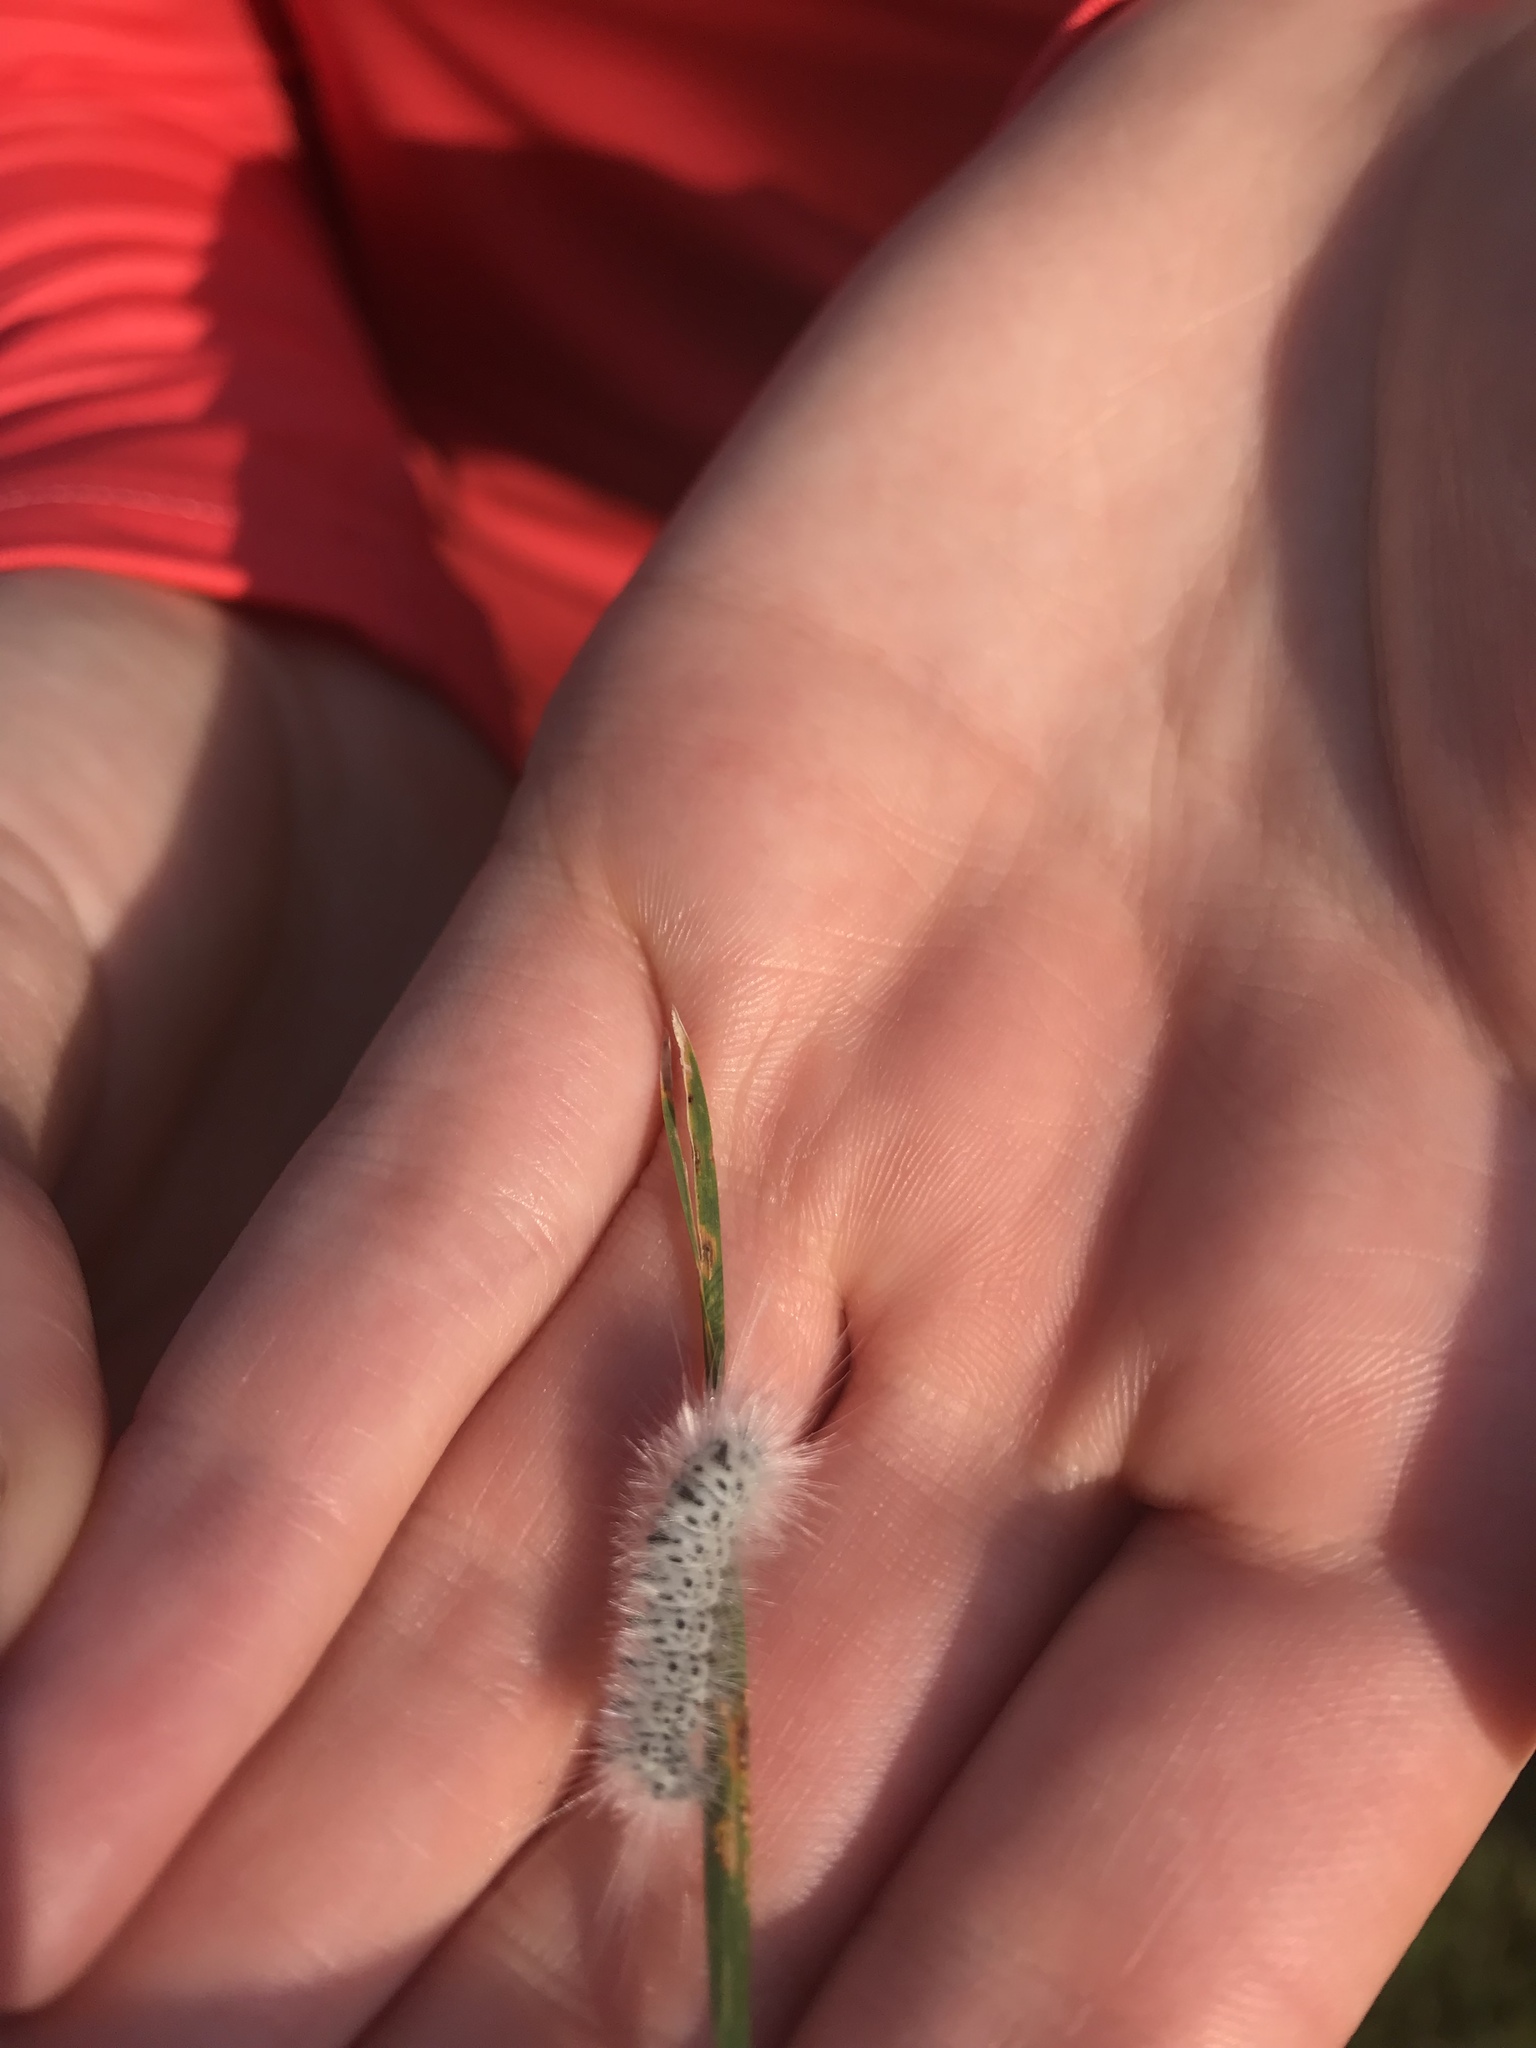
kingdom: Animalia
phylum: Arthropoda
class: Insecta
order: Lepidoptera
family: Erebidae
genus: Lophocampa
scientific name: Lophocampa caryae
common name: Hickory tussock moth
